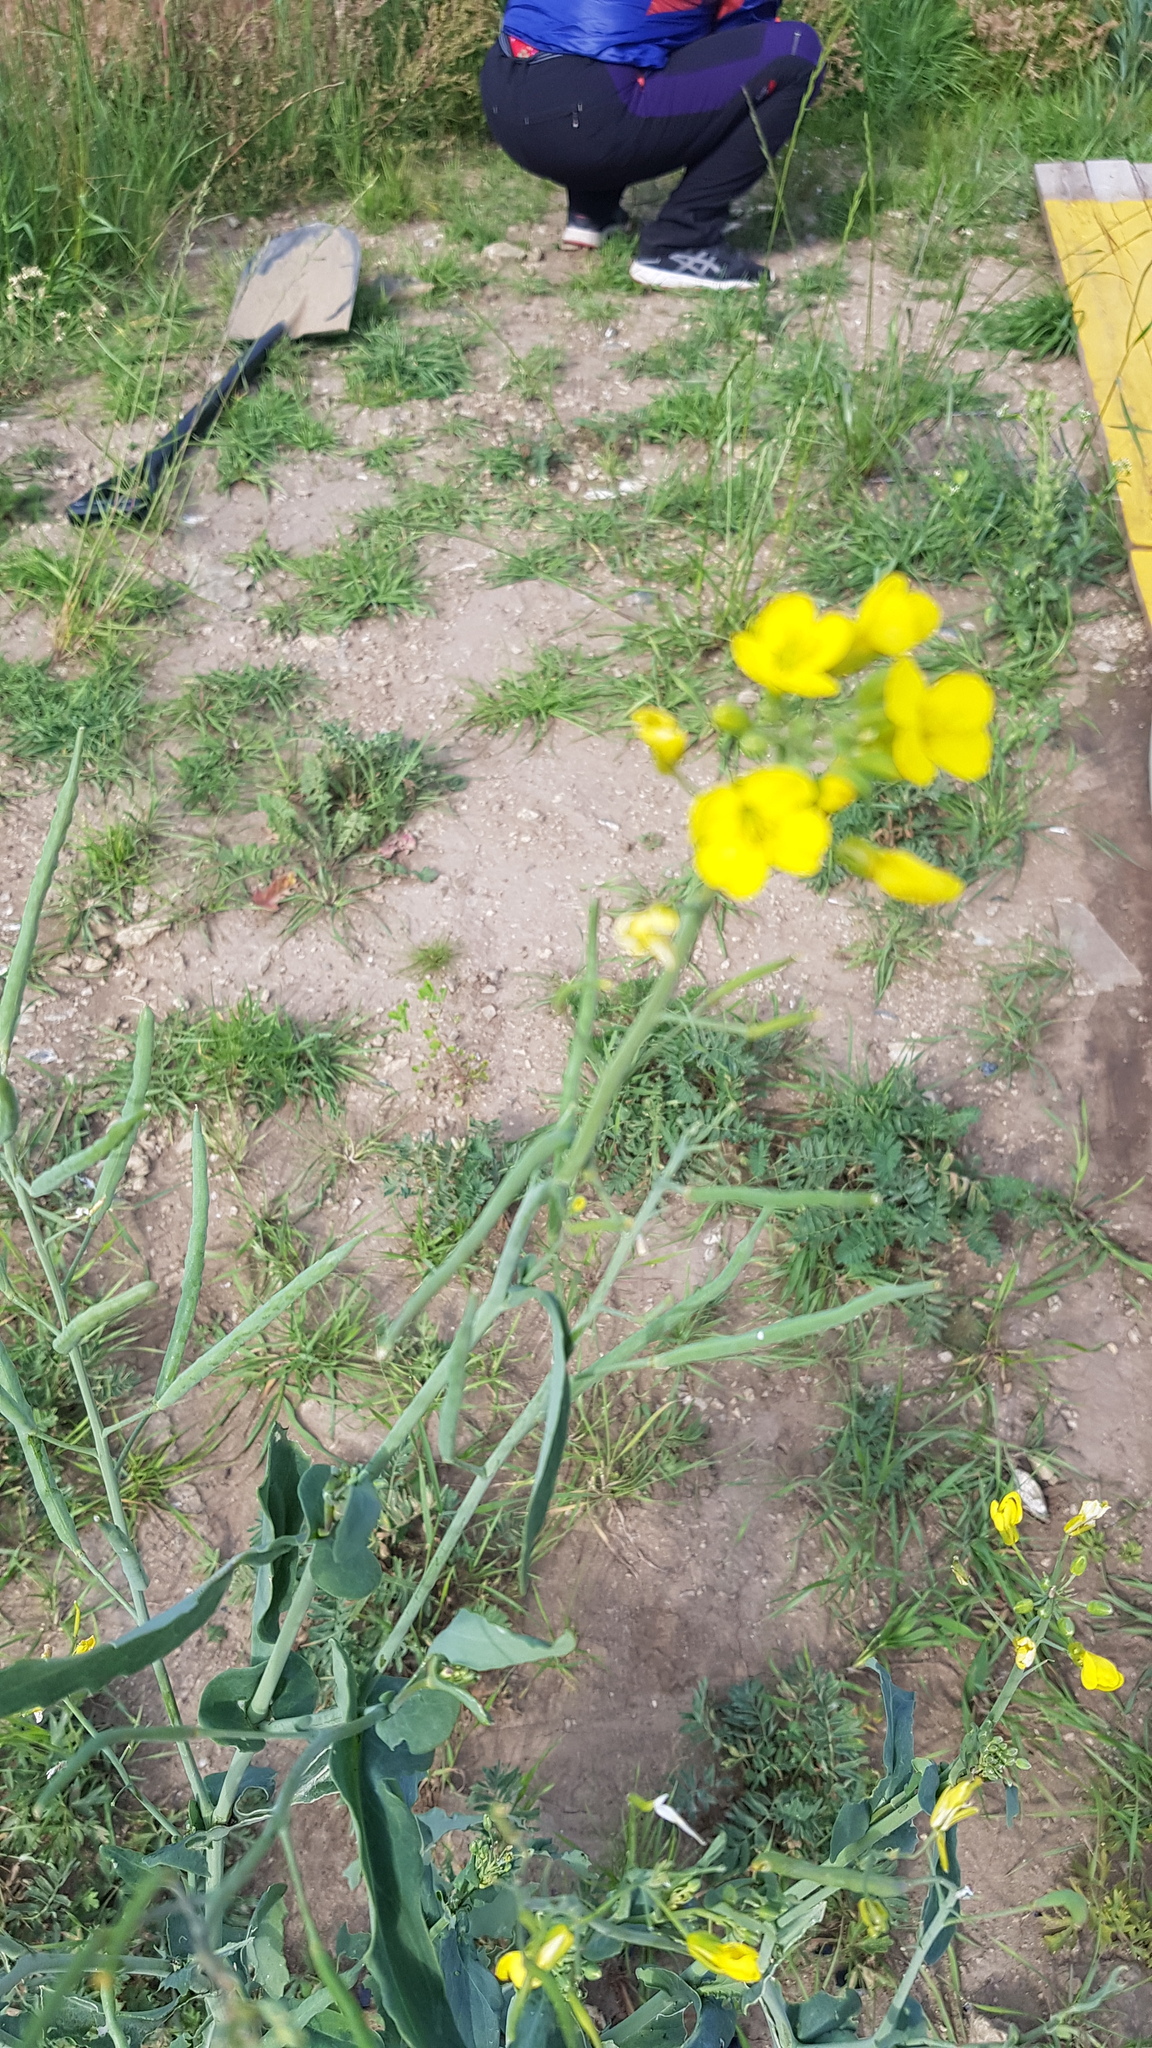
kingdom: Plantae
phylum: Tracheophyta
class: Magnoliopsida
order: Brassicales
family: Brassicaceae
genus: Brassica
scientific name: Brassica napus
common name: Rape
